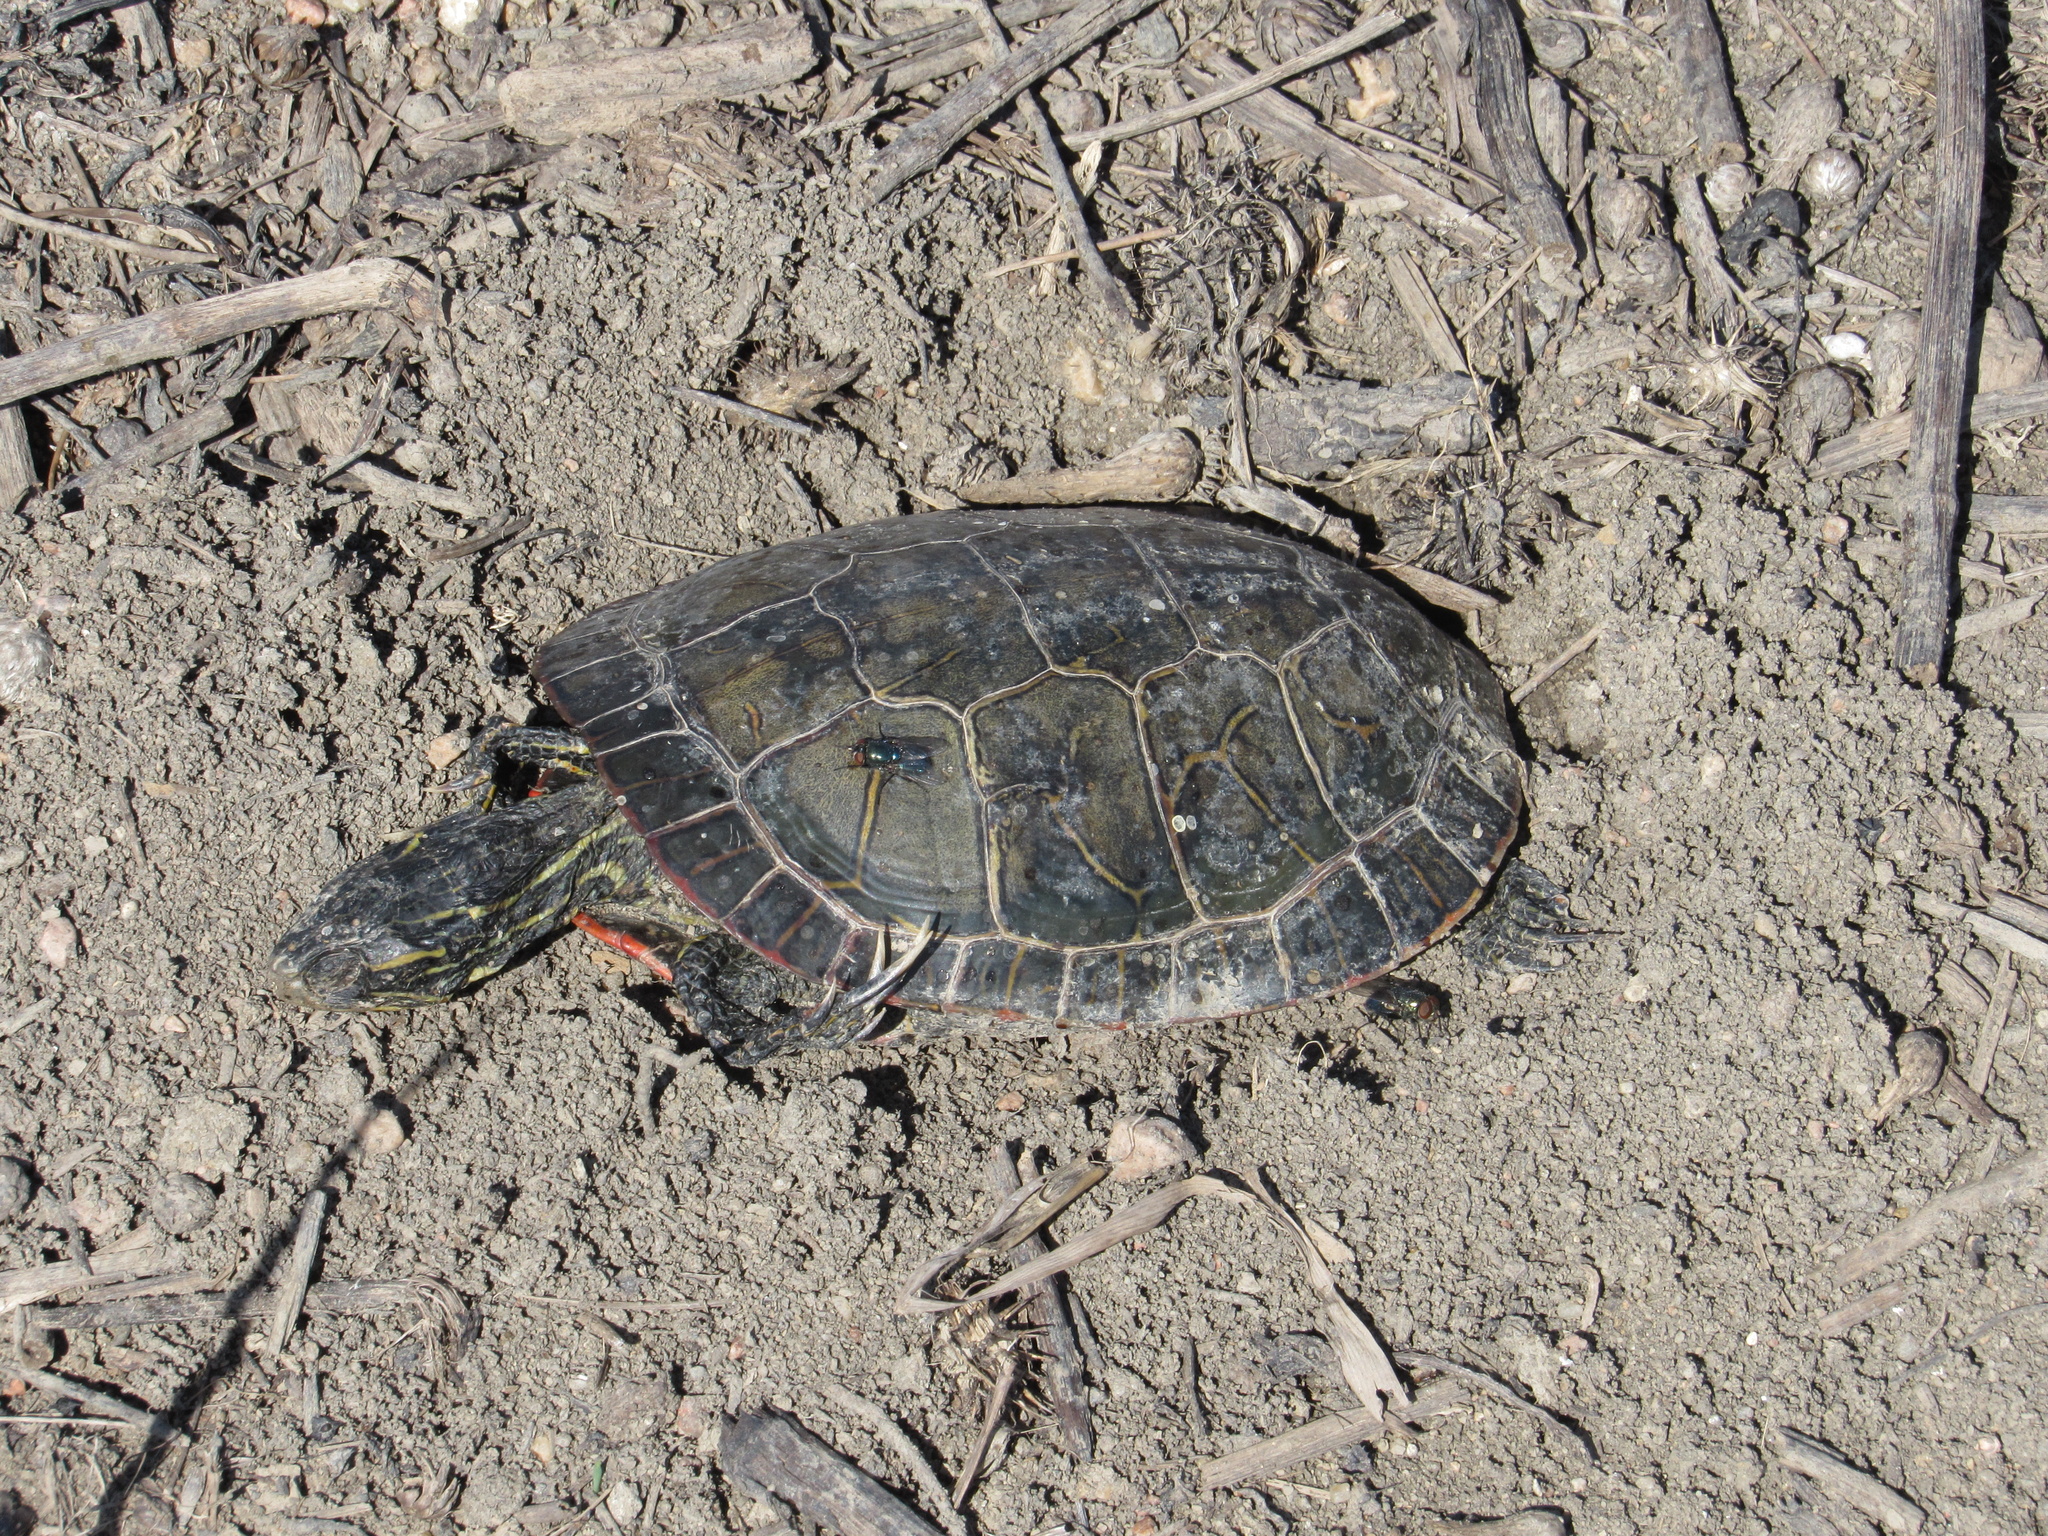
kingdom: Animalia
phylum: Chordata
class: Testudines
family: Emydidae
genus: Chrysemys
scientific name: Chrysemys picta
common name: Painted turtle
